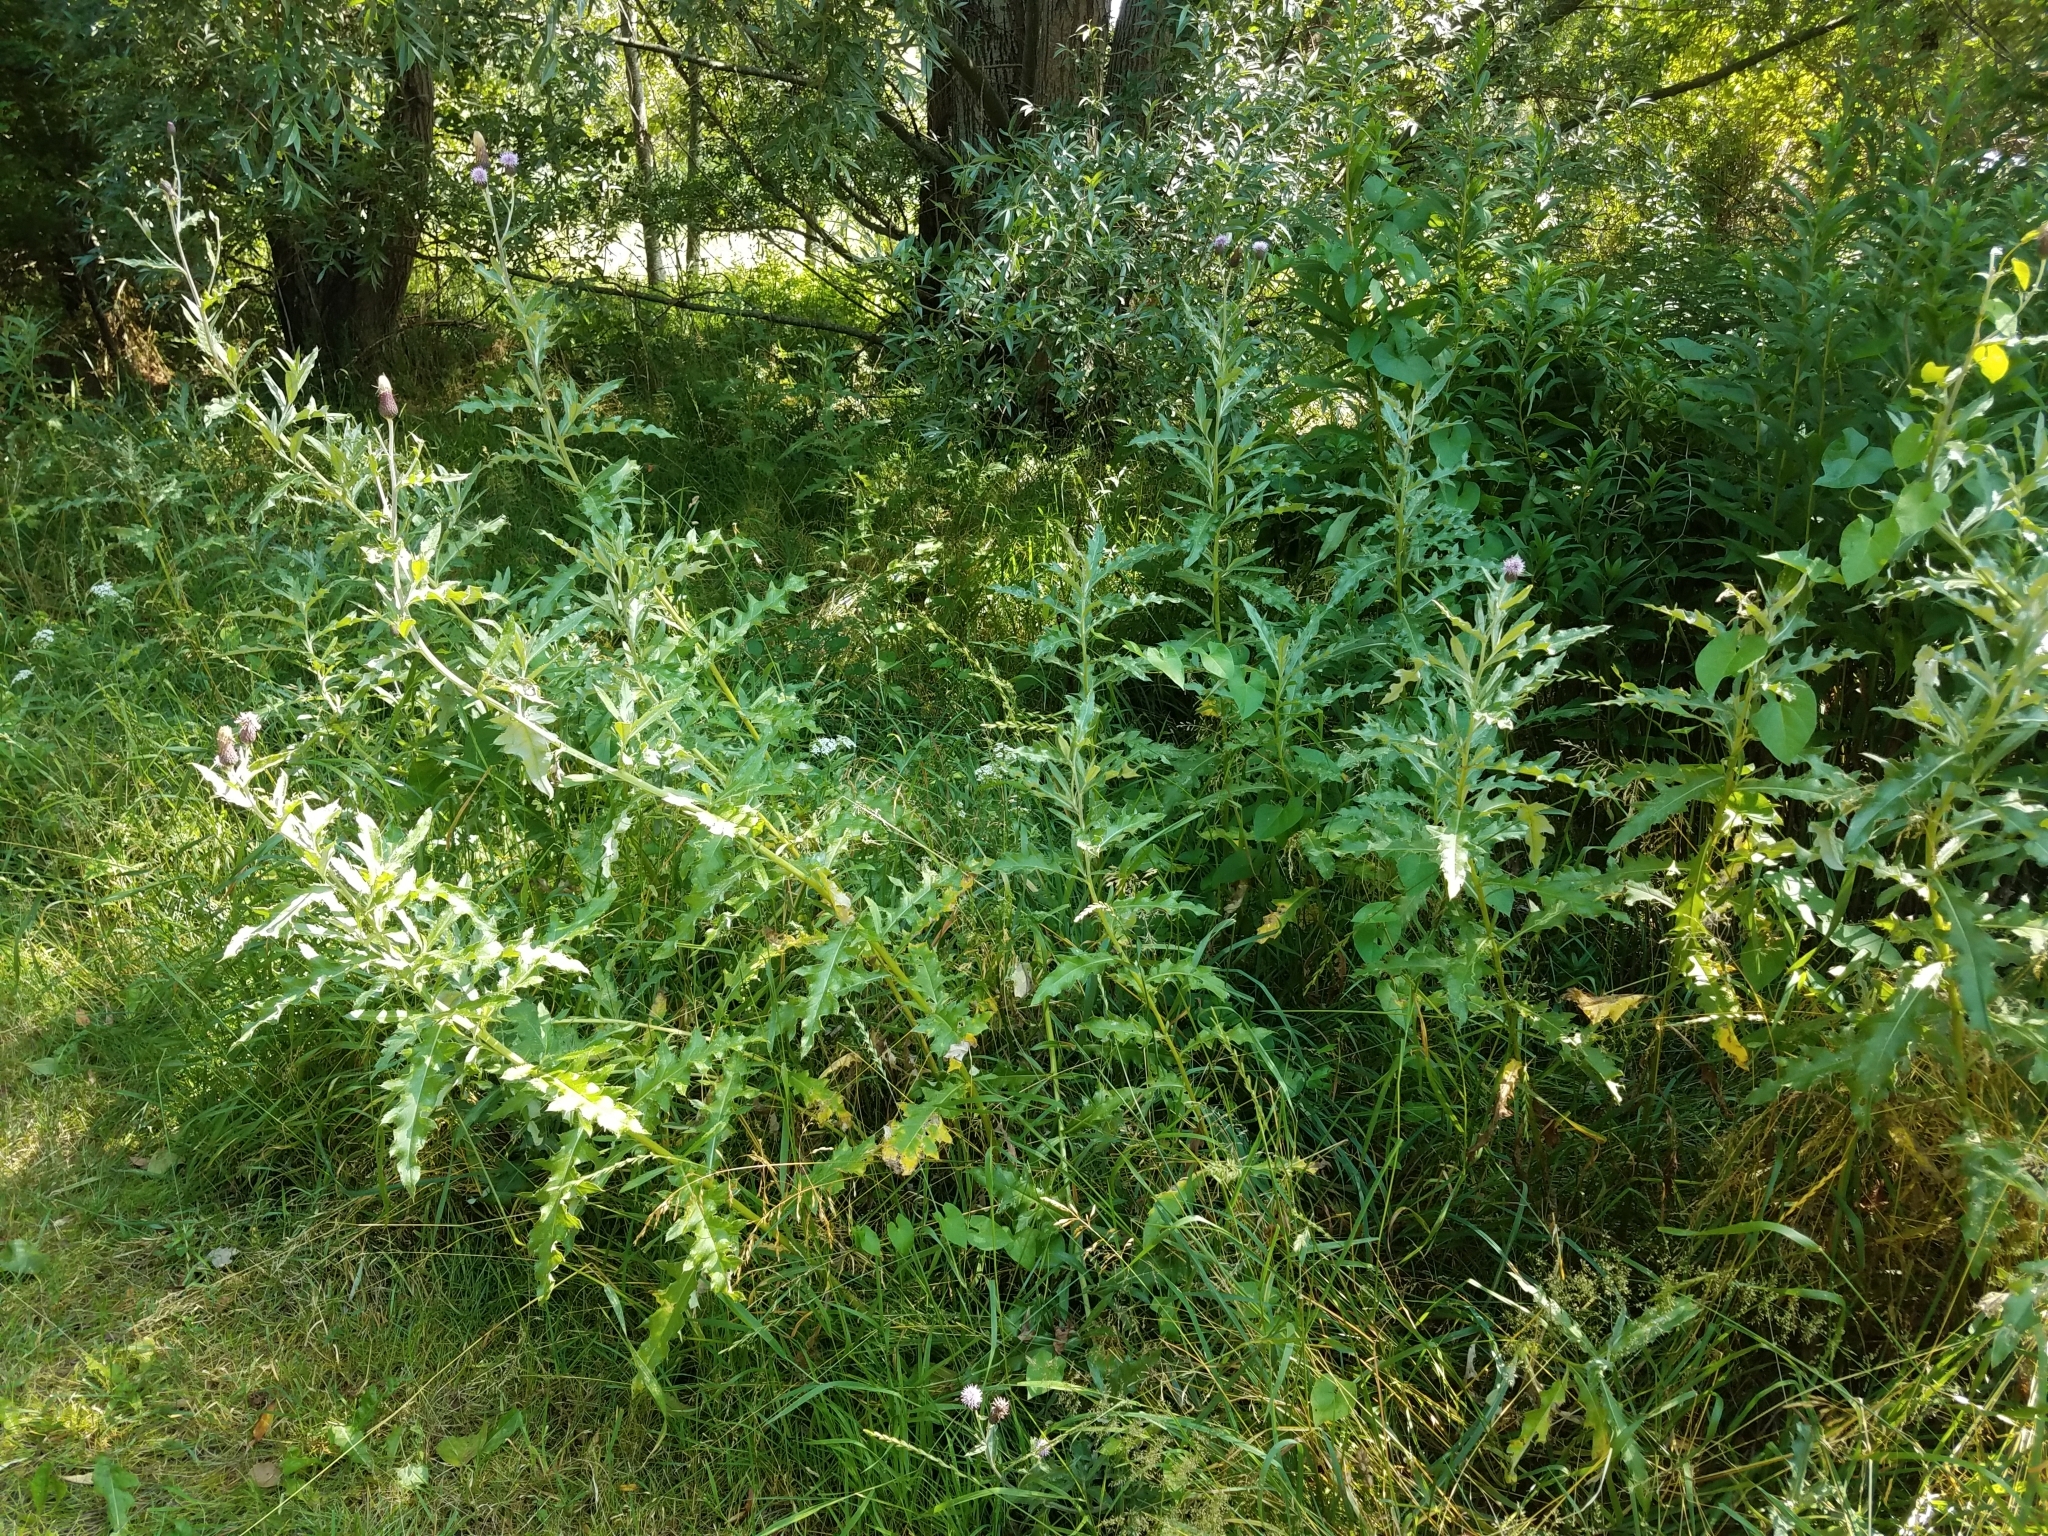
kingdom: Plantae
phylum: Tracheophyta
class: Magnoliopsida
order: Asterales
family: Asteraceae
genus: Cirsium
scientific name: Cirsium arvense
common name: Creeping thistle
